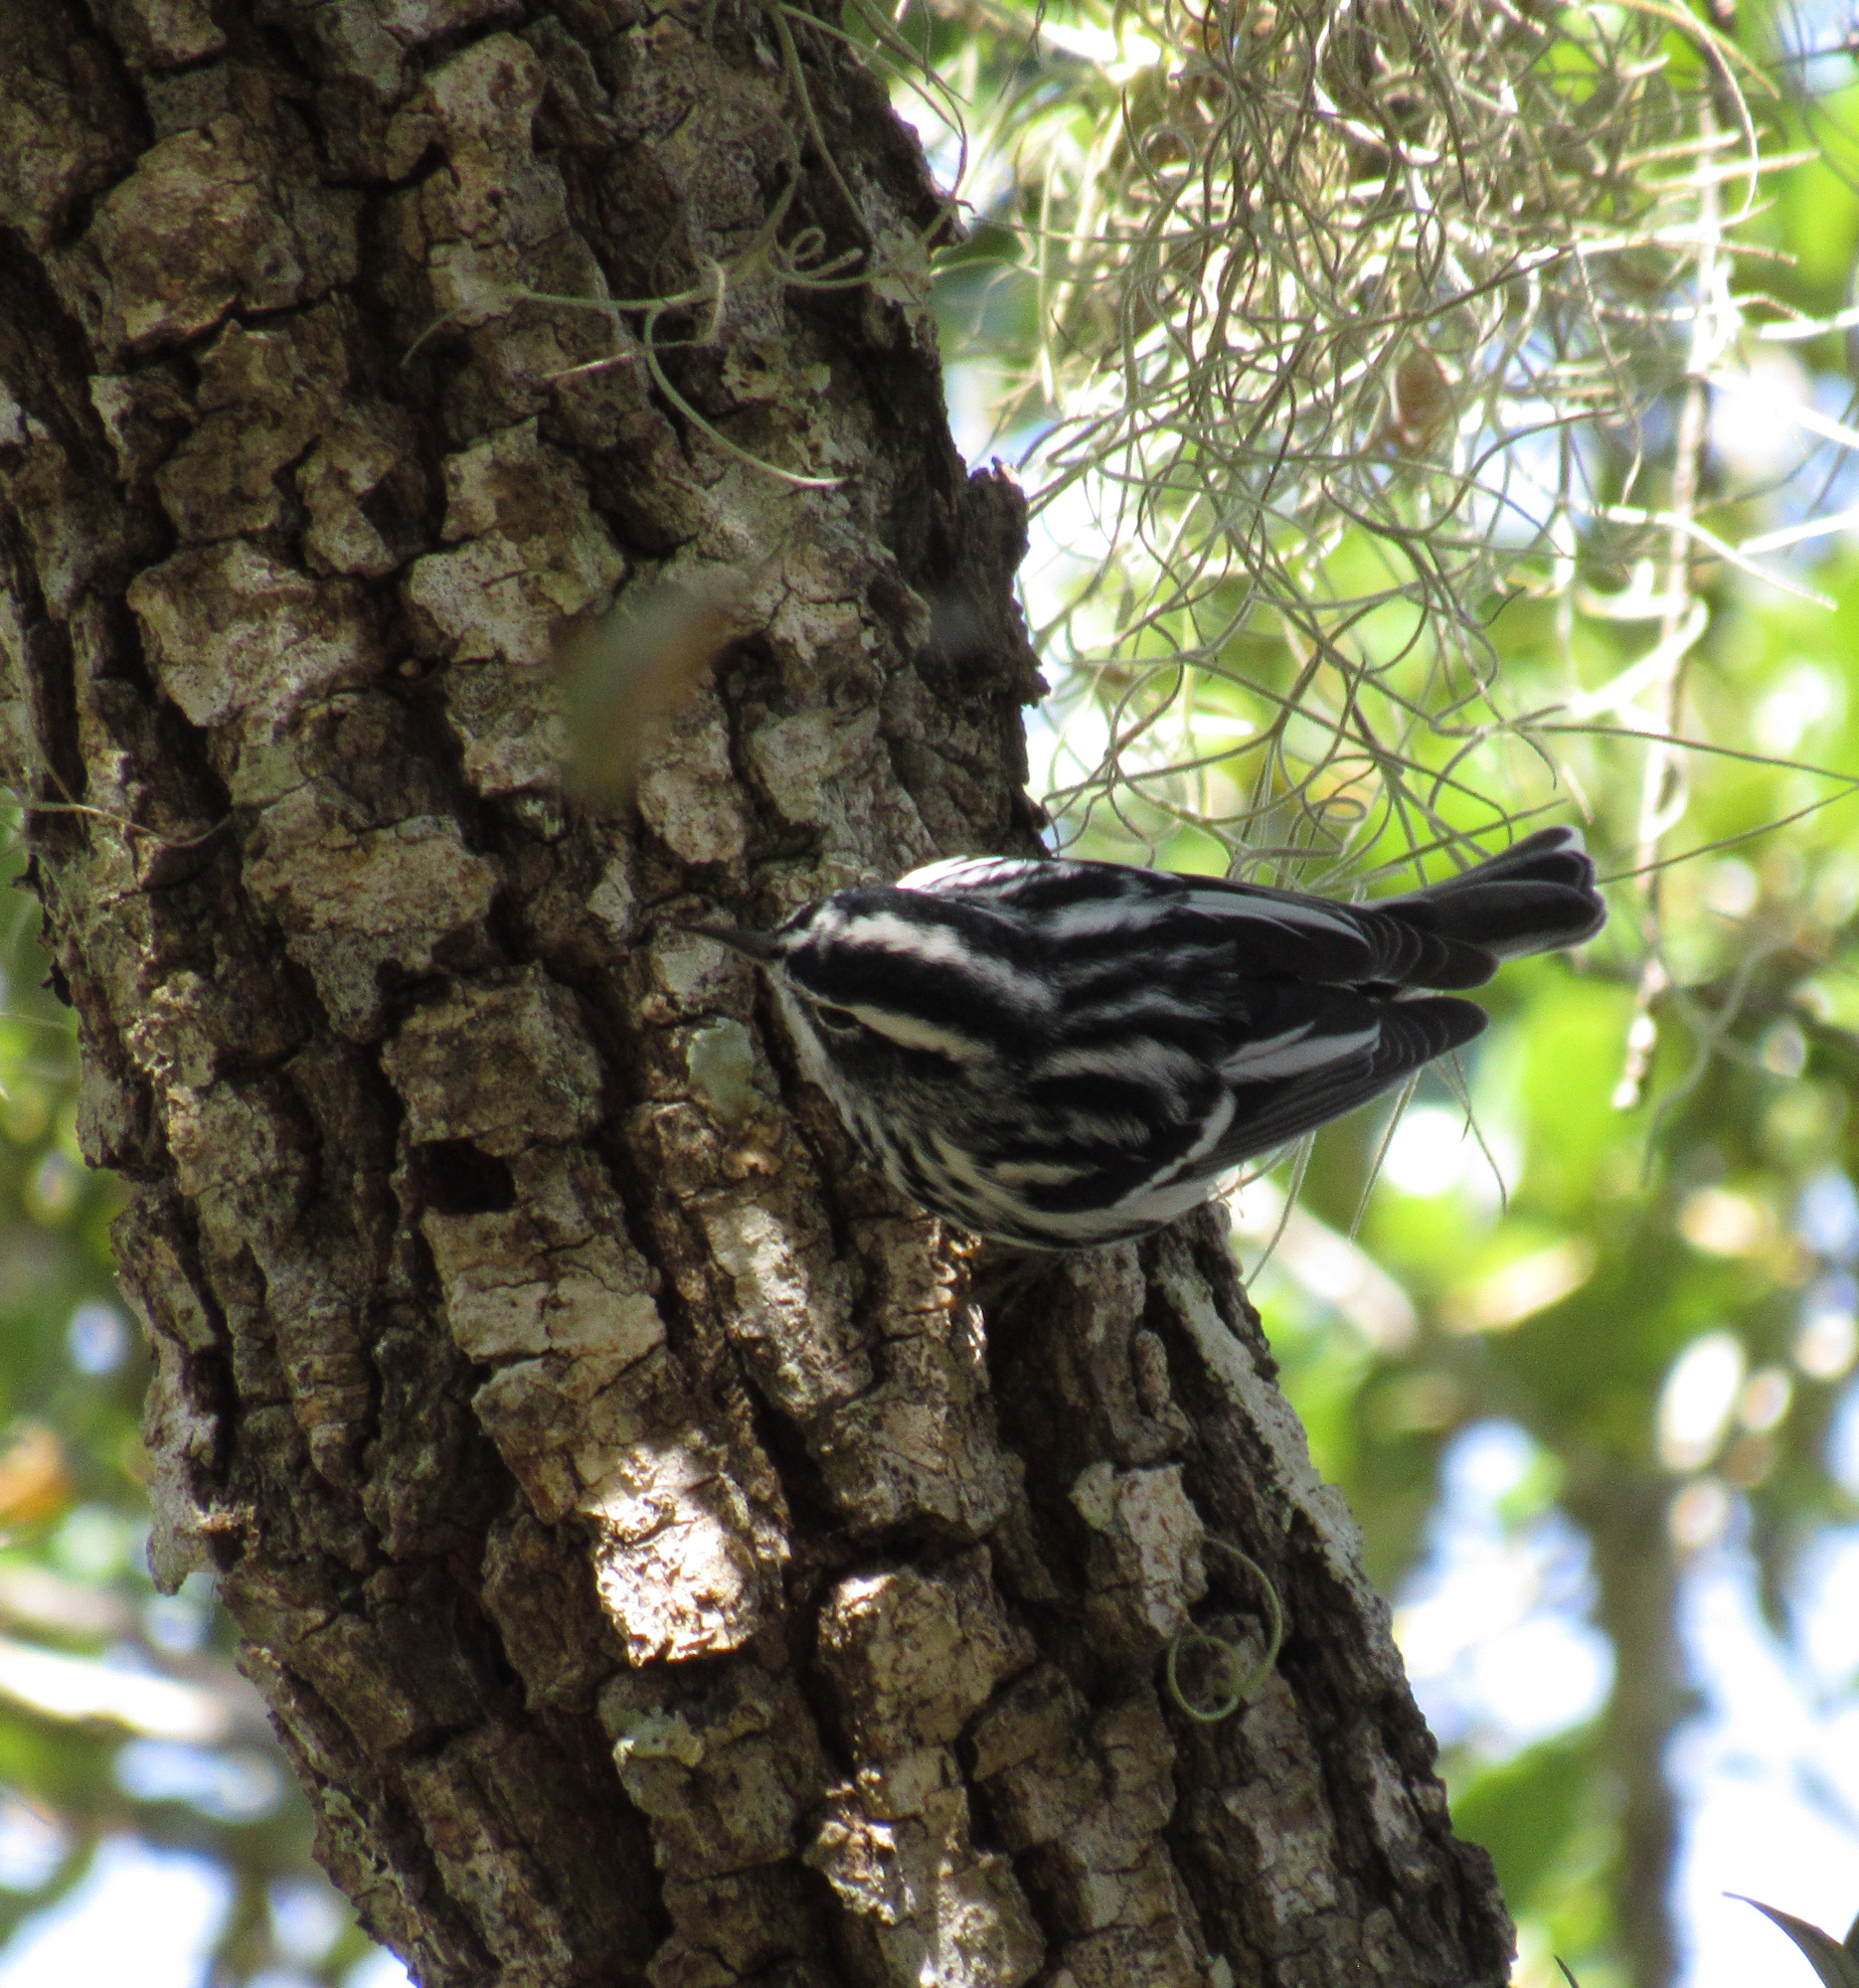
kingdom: Animalia
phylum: Chordata
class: Aves
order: Passeriformes
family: Parulidae
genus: Mniotilta
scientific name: Mniotilta varia
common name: Black-and-white warbler
